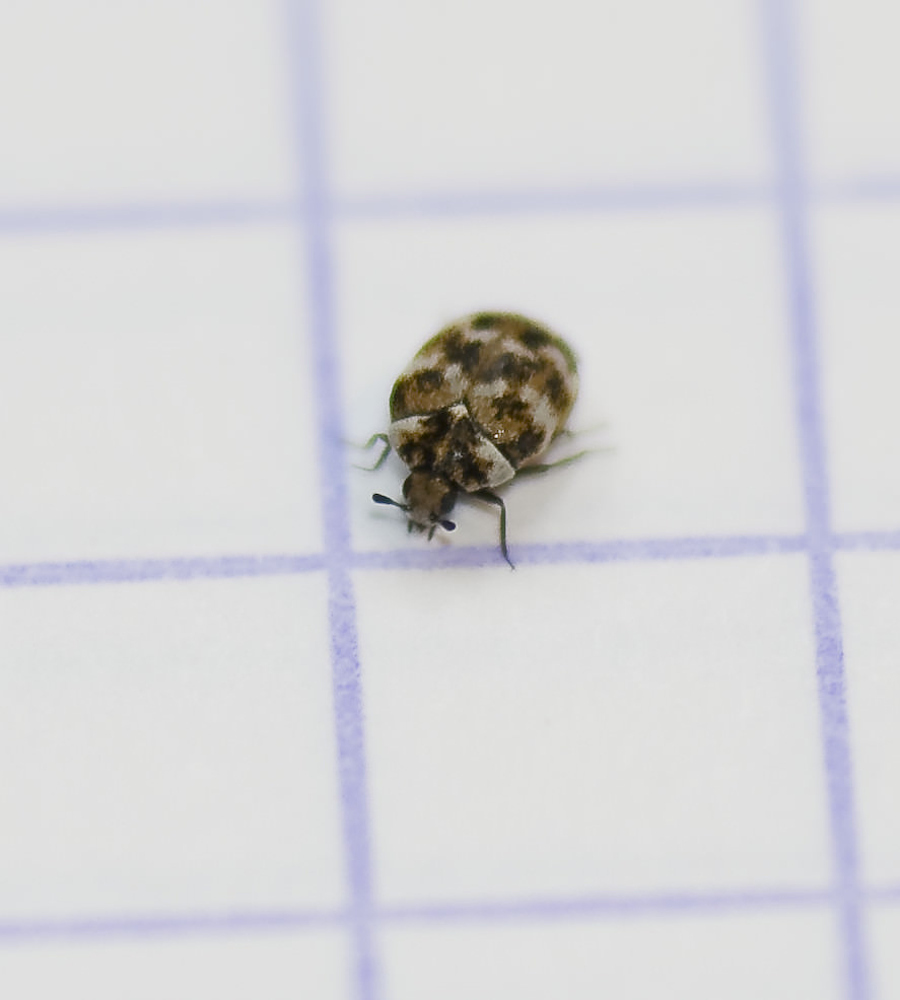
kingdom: Animalia
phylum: Arthropoda
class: Insecta
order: Coleoptera
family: Dermestidae
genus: Anthrenus
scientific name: Anthrenus verbasci
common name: Varied carpet beetle
